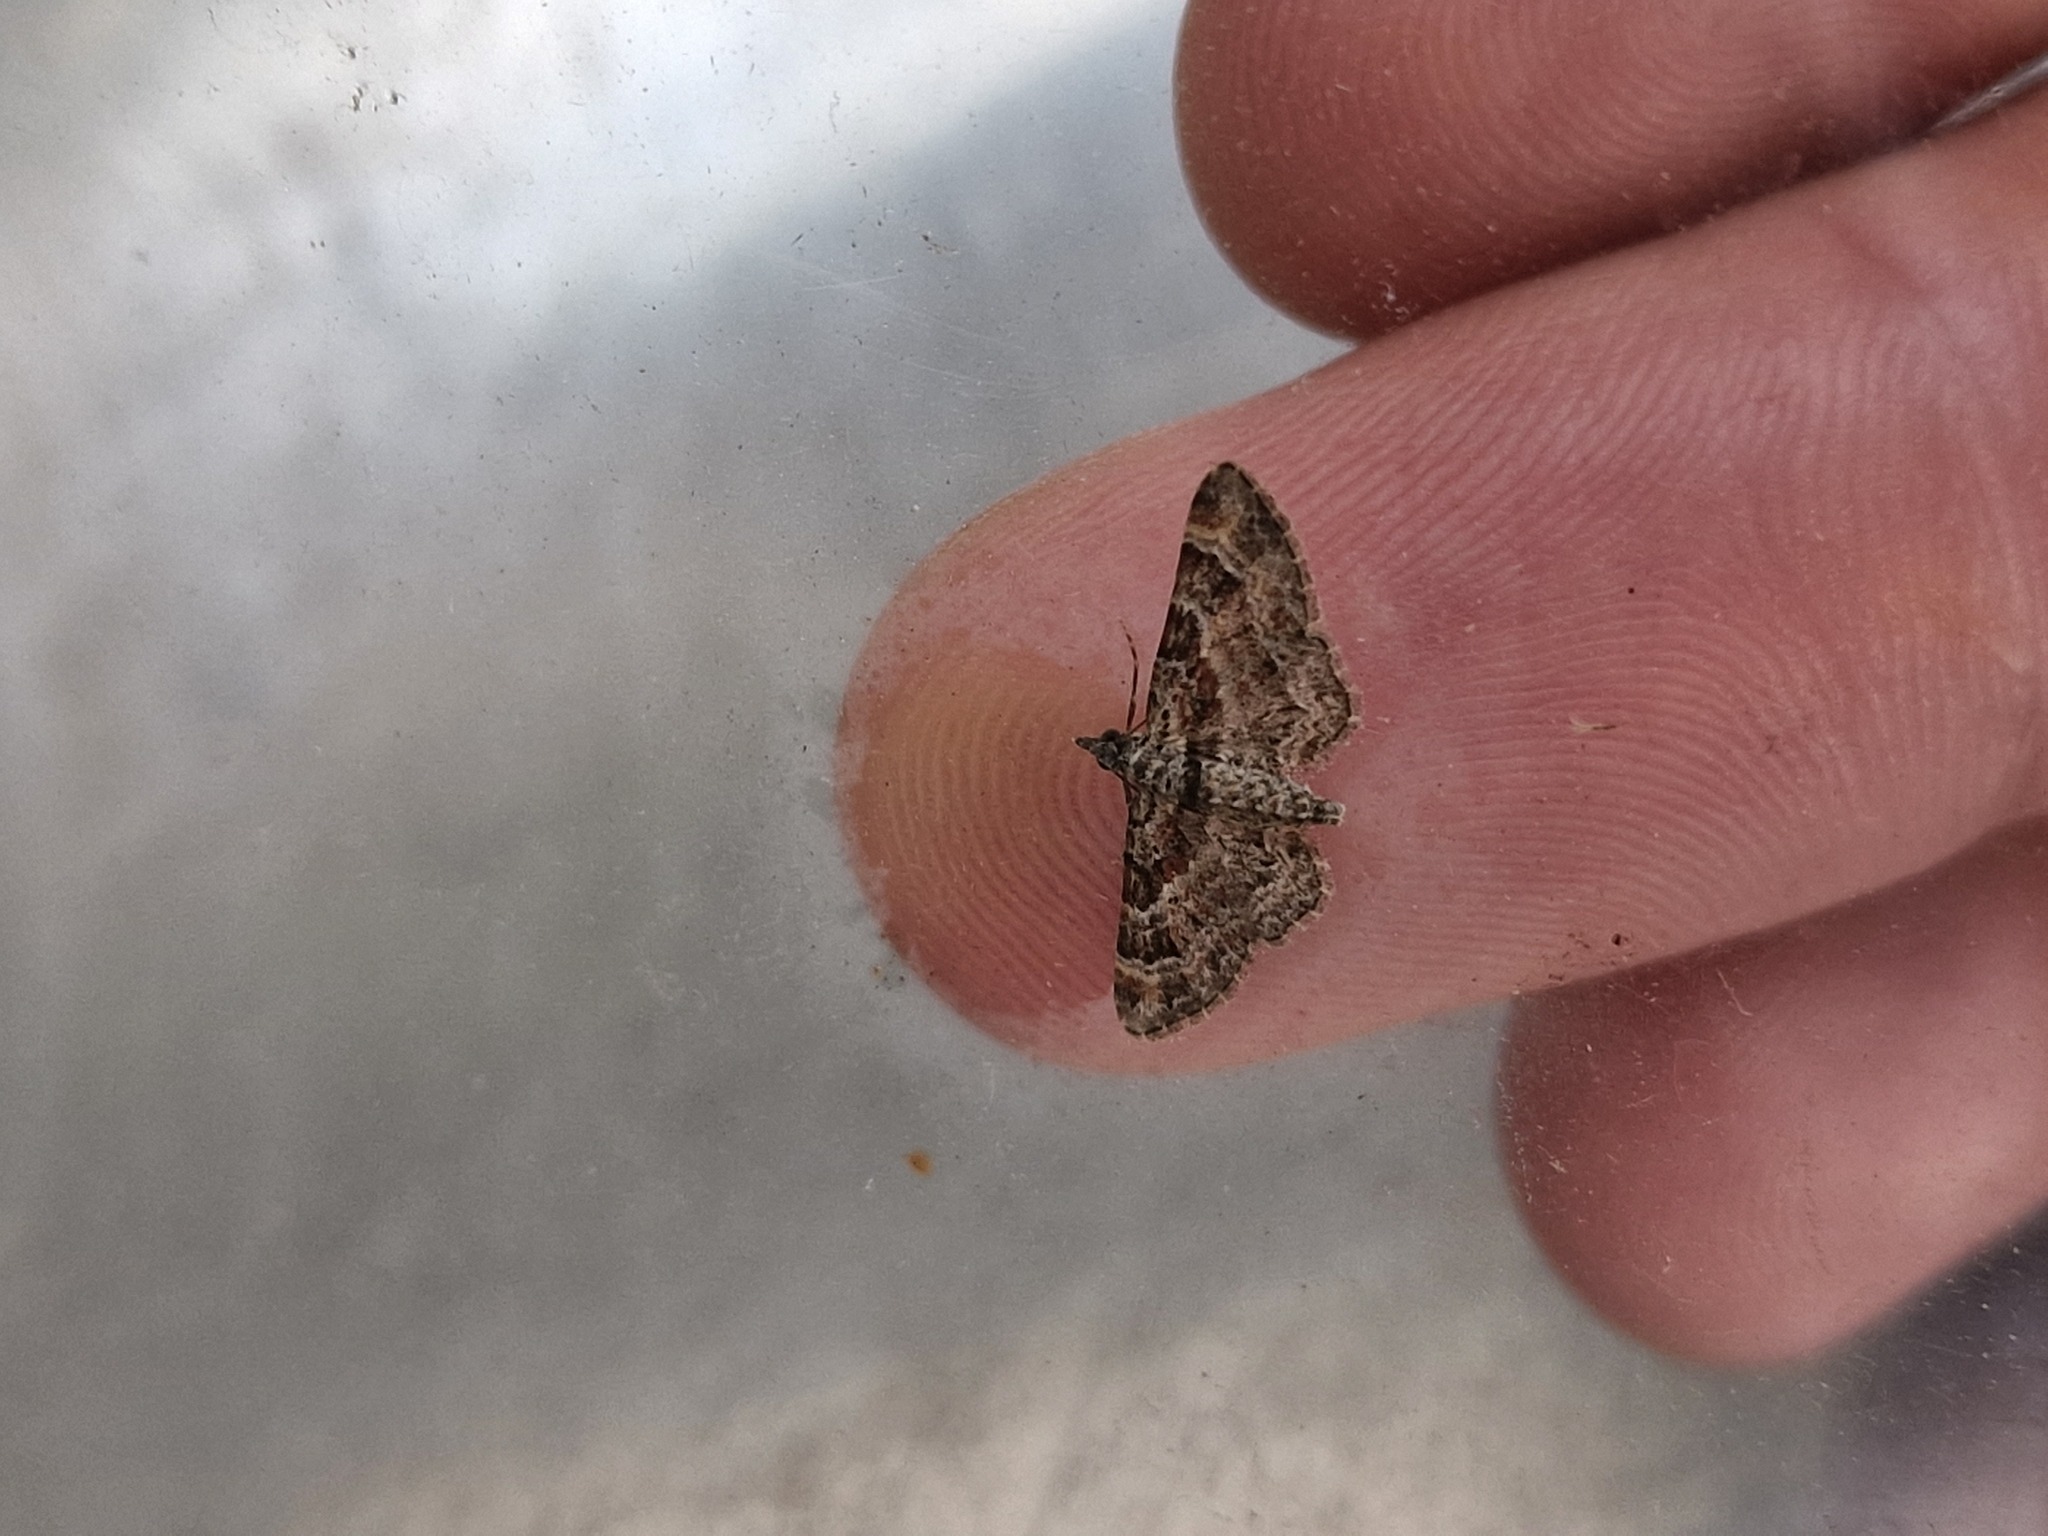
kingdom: Animalia
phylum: Arthropoda
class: Insecta
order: Lepidoptera
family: Geometridae
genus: Gymnoscelis
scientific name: Gymnoscelis rufifasciata
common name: Double-striped pug
